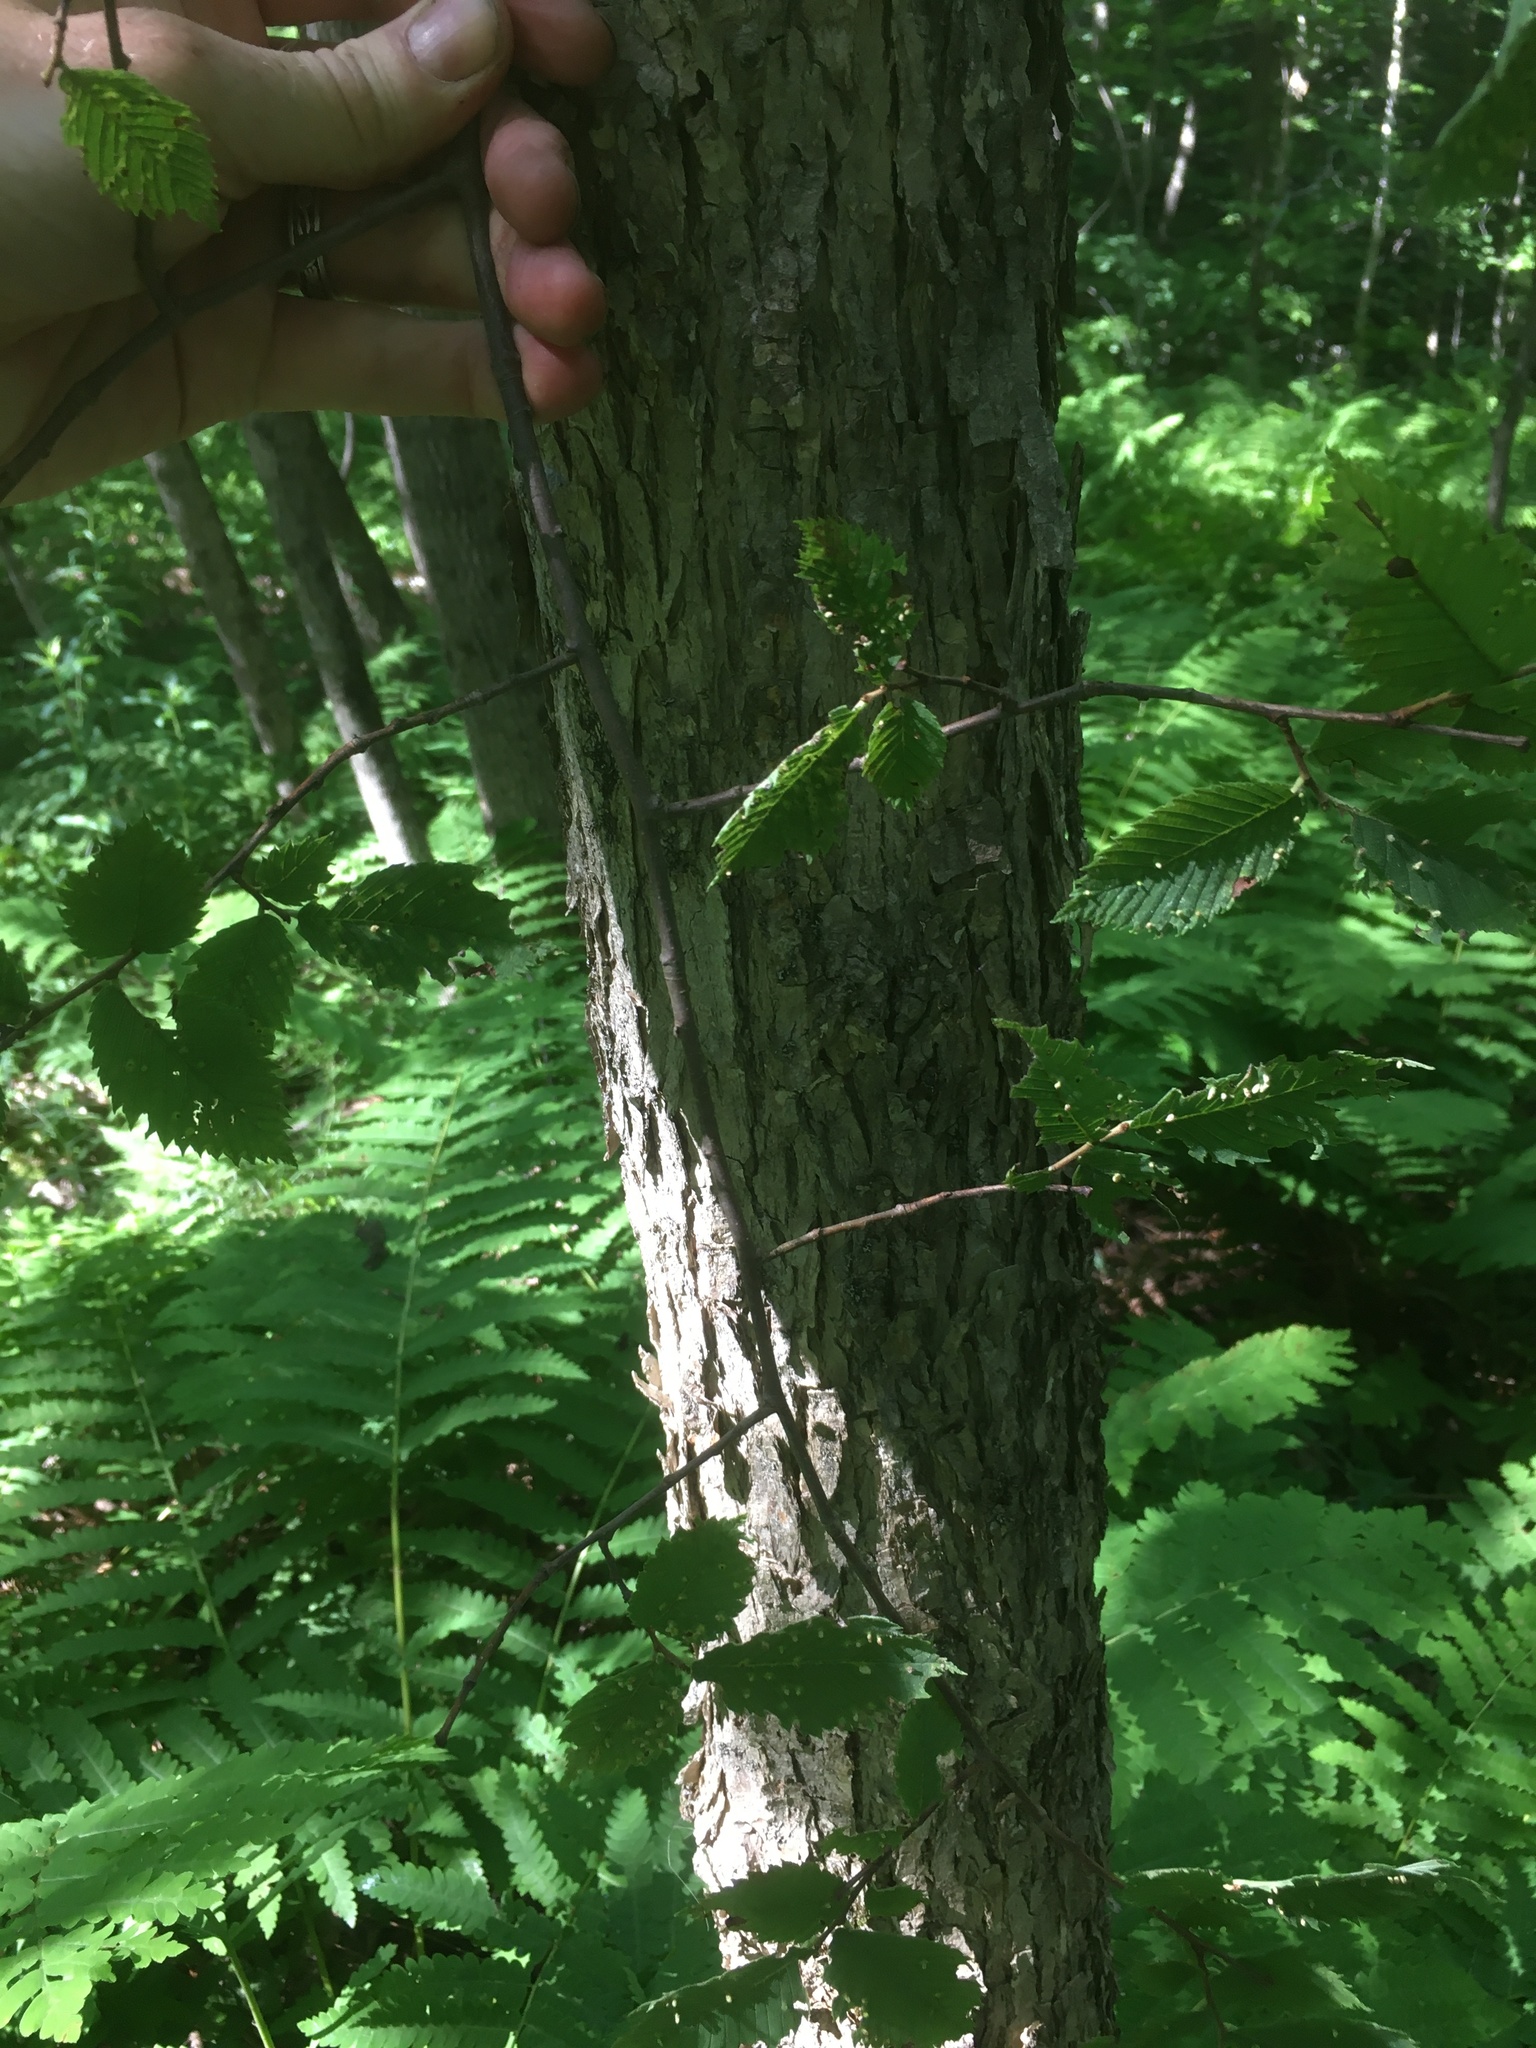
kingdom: Plantae
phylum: Tracheophyta
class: Magnoliopsida
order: Rosales
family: Ulmaceae
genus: Ulmus
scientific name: Ulmus americana
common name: American elm
